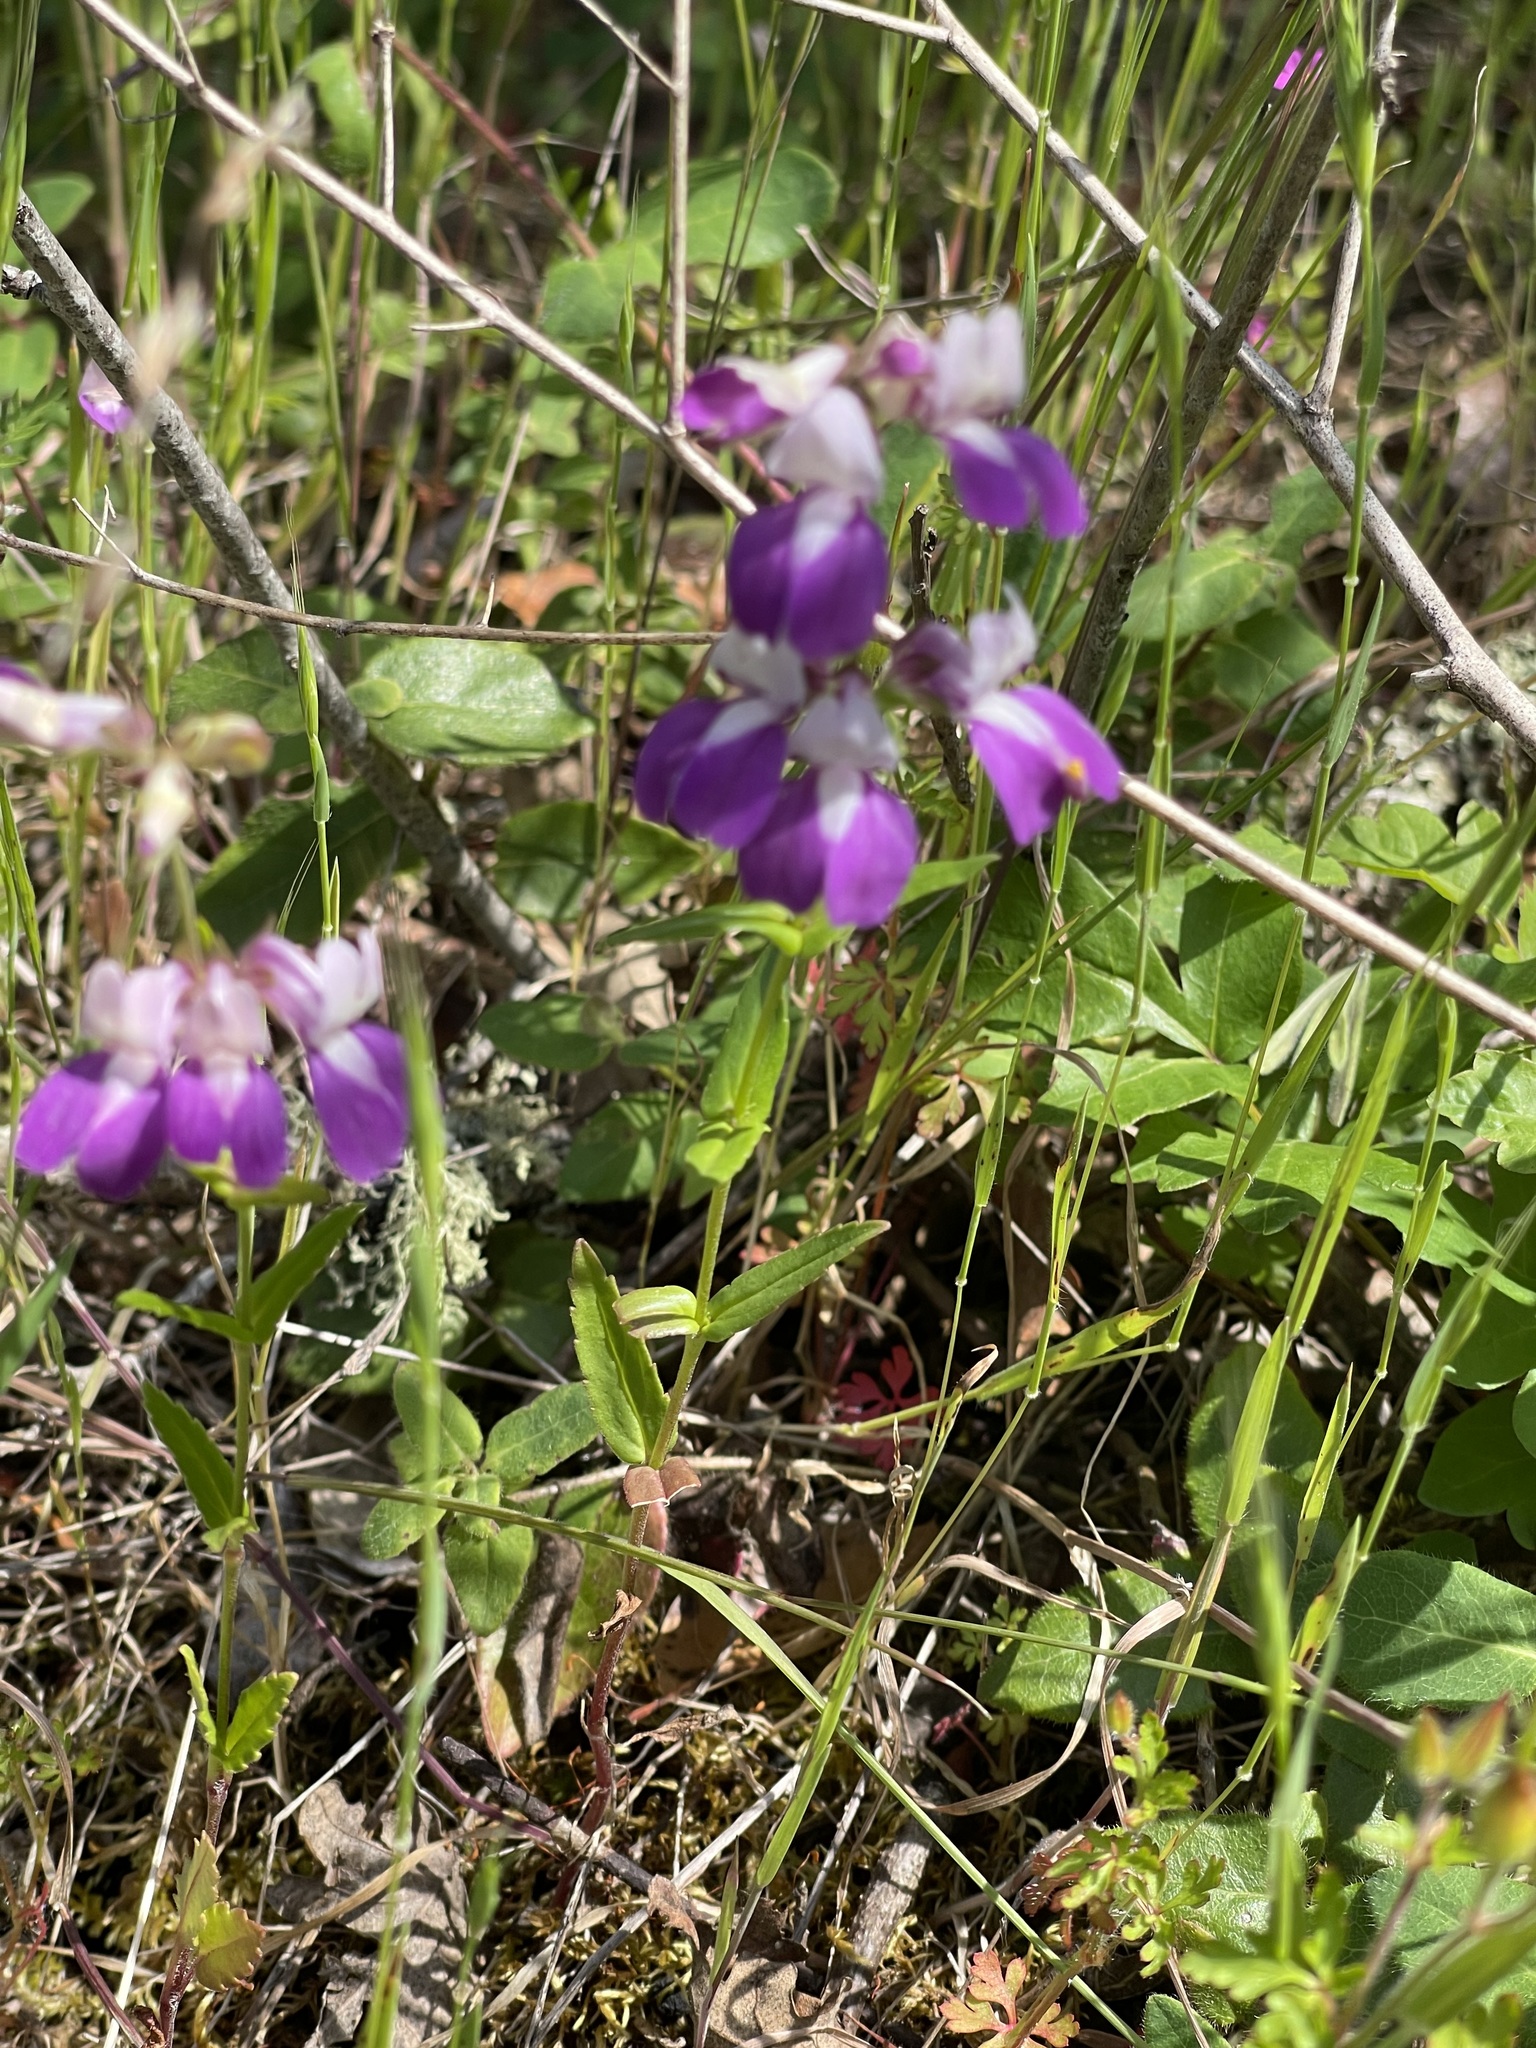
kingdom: Plantae
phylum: Tracheophyta
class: Magnoliopsida
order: Lamiales
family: Plantaginaceae
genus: Collinsia
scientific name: Collinsia heterophylla
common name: Chinese-houses
